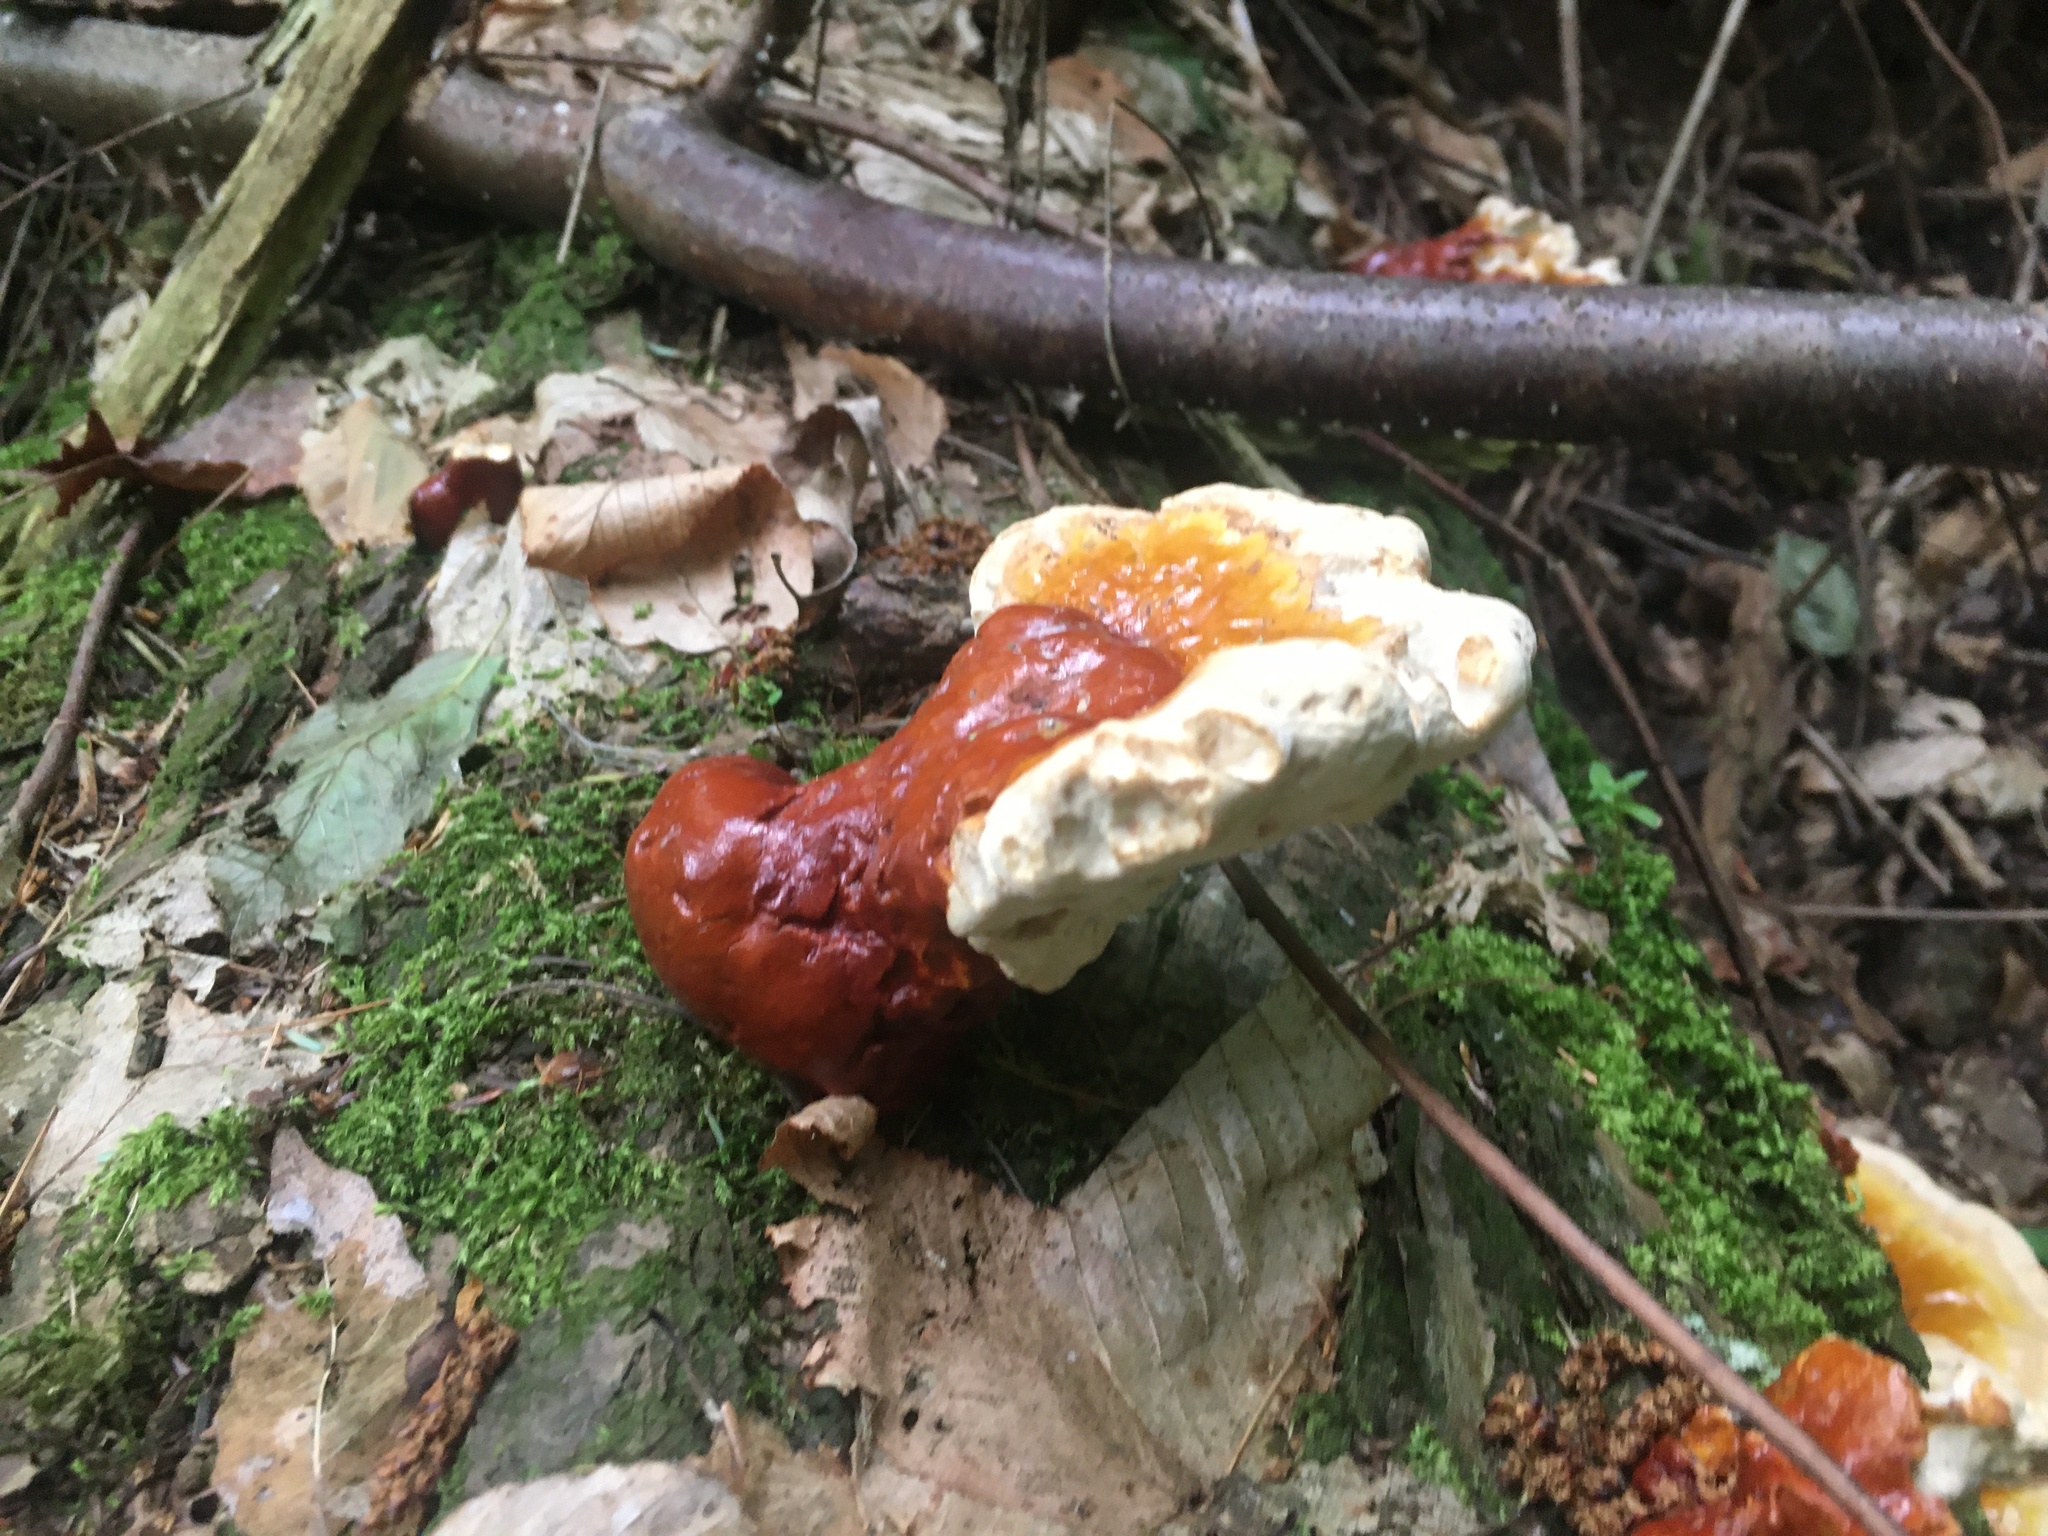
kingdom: Fungi
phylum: Basidiomycota
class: Agaricomycetes
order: Polyporales
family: Polyporaceae
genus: Ganoderma
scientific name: Ganoderma tsugae
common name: Hemlock varnish shelf
